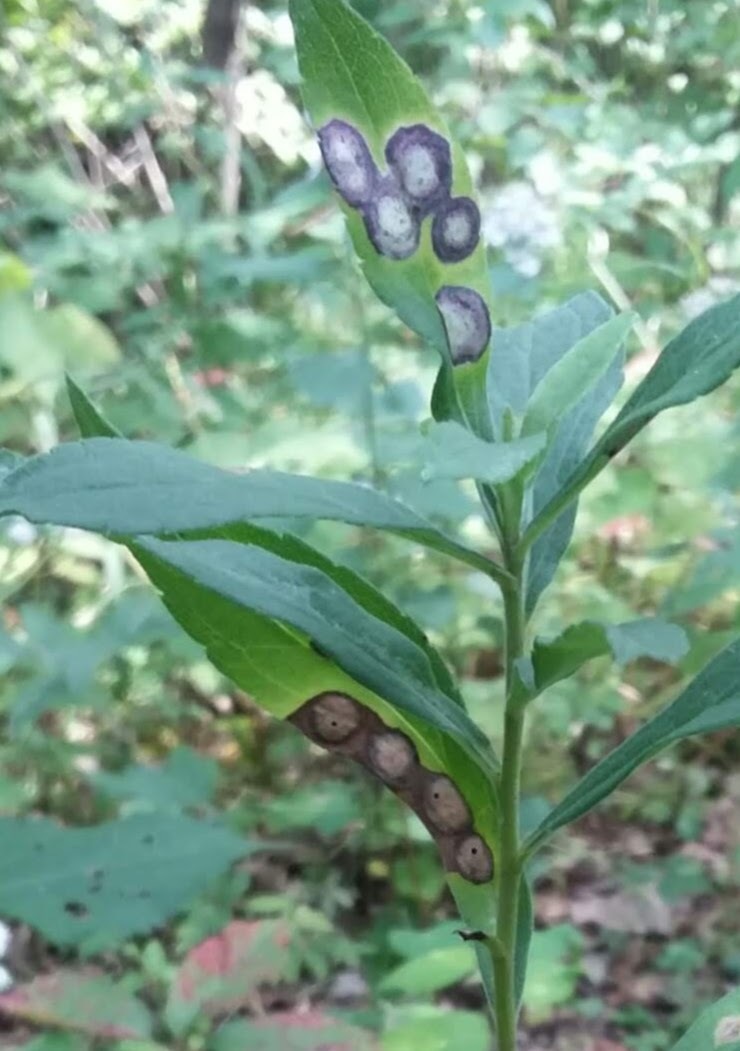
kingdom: Animalia
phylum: Arthropoda
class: Insecta
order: Diptera
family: Cecidomyiidae
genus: Asteromyia
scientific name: Asteromyia carbonifera
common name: Carbonifera goldenrod gall midge
